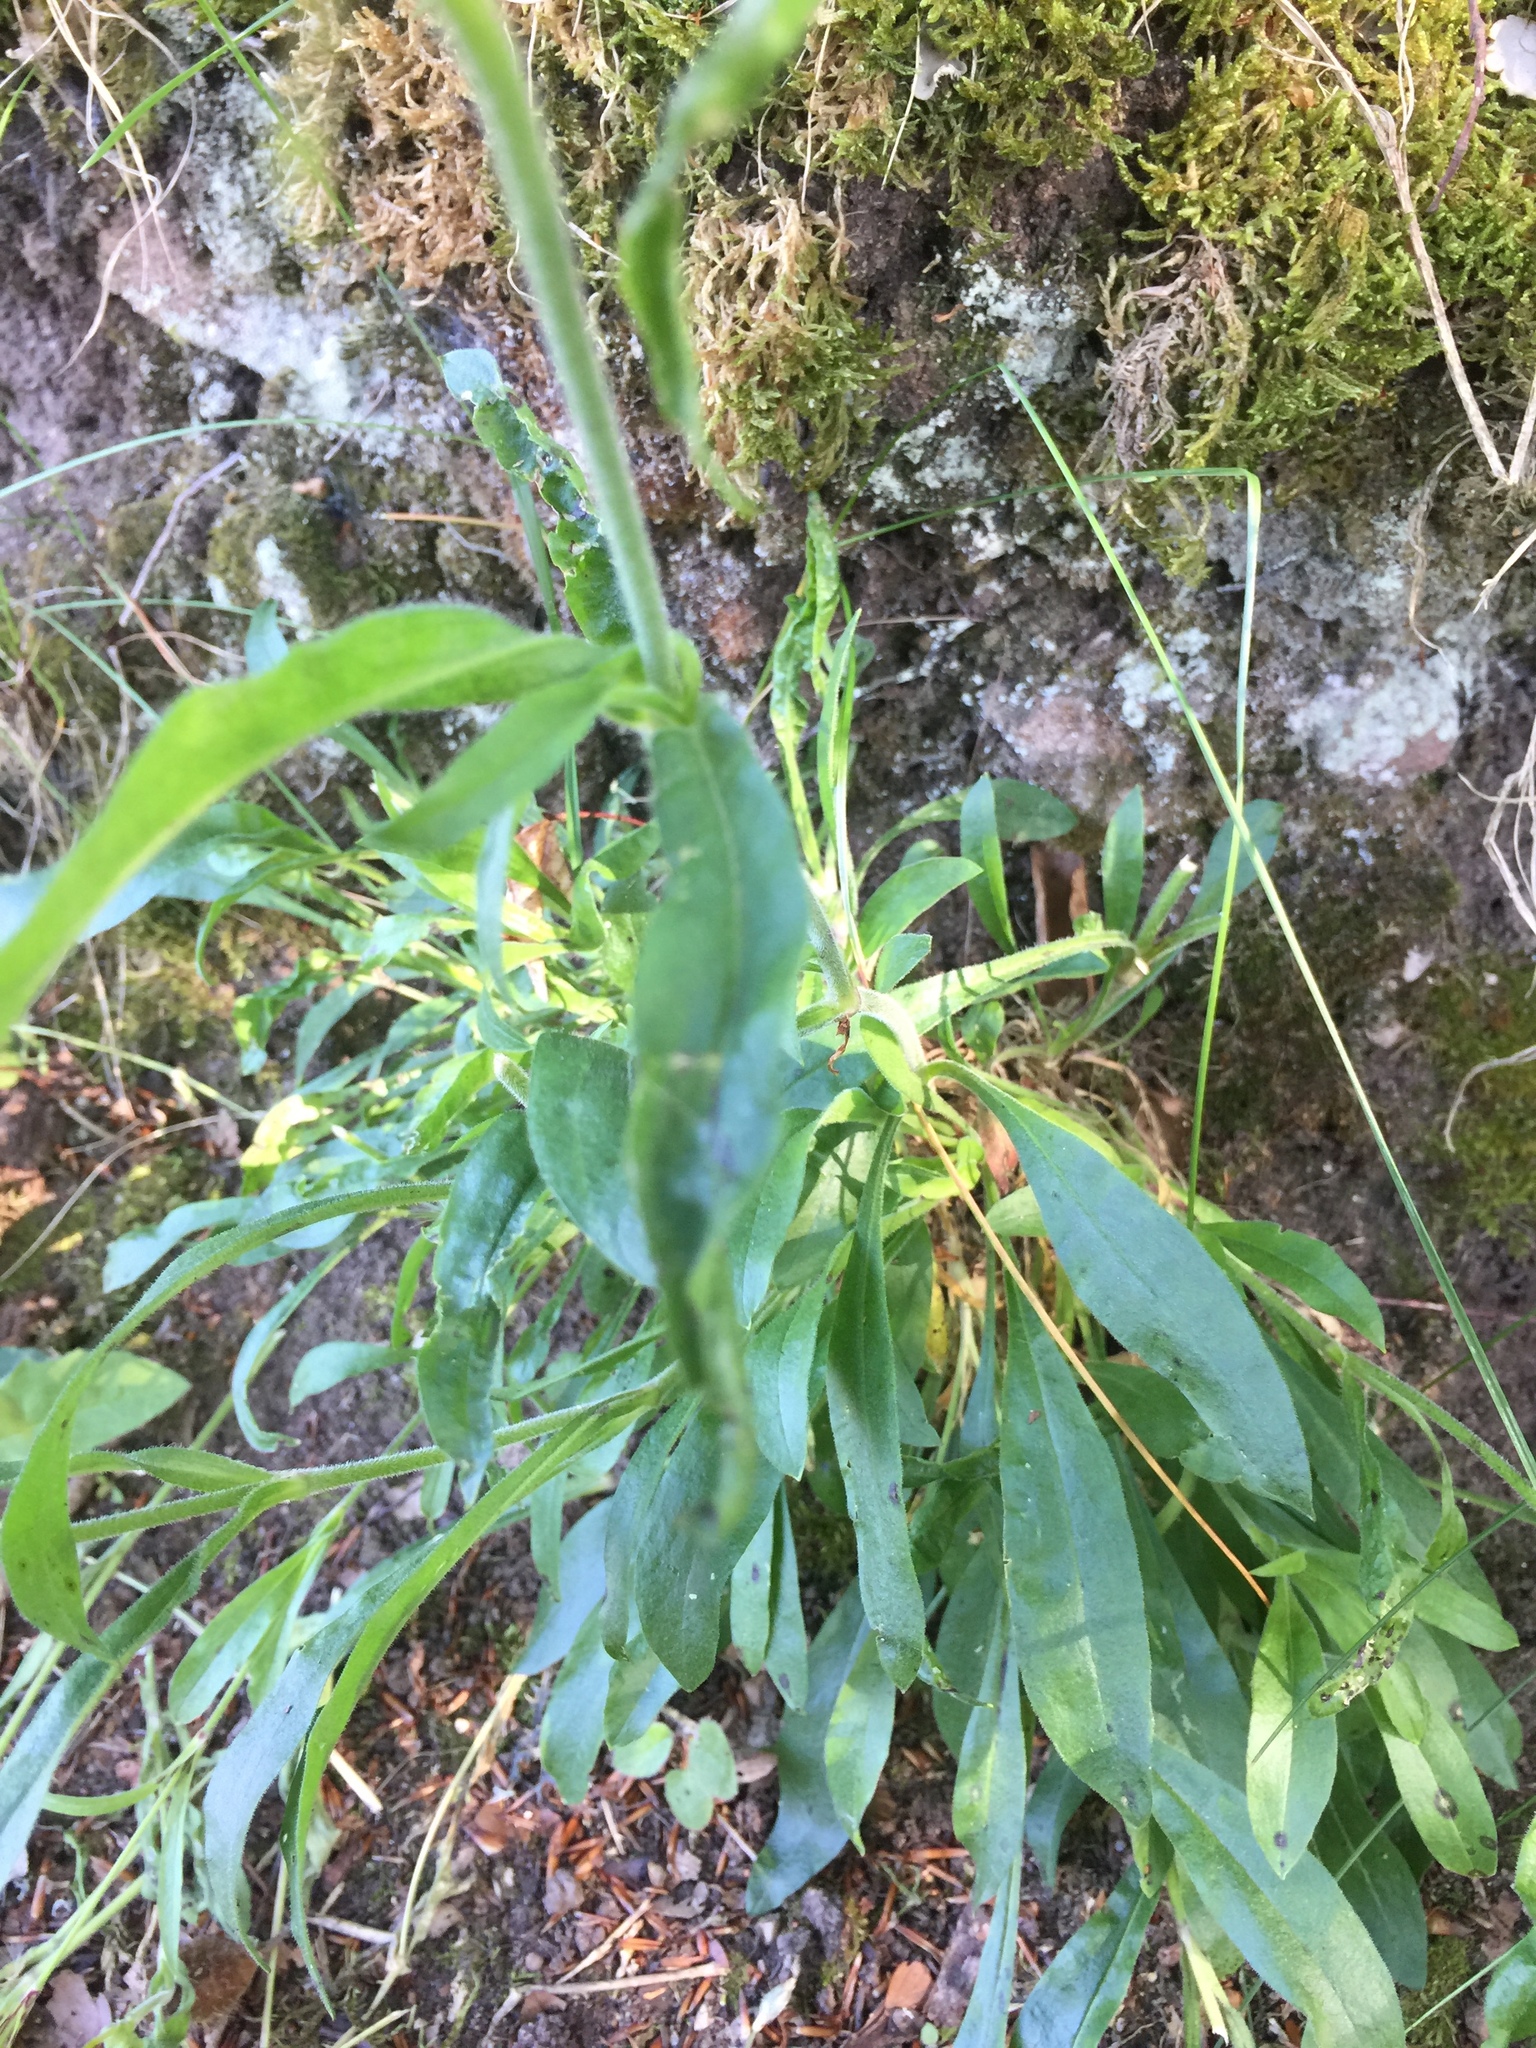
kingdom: Plantae
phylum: Tracheophyta
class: Magnoliopsida
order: Caryophyllales
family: Caryophyllaceae
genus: Silene
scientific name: Silene nutans
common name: Nottingham catchfly
